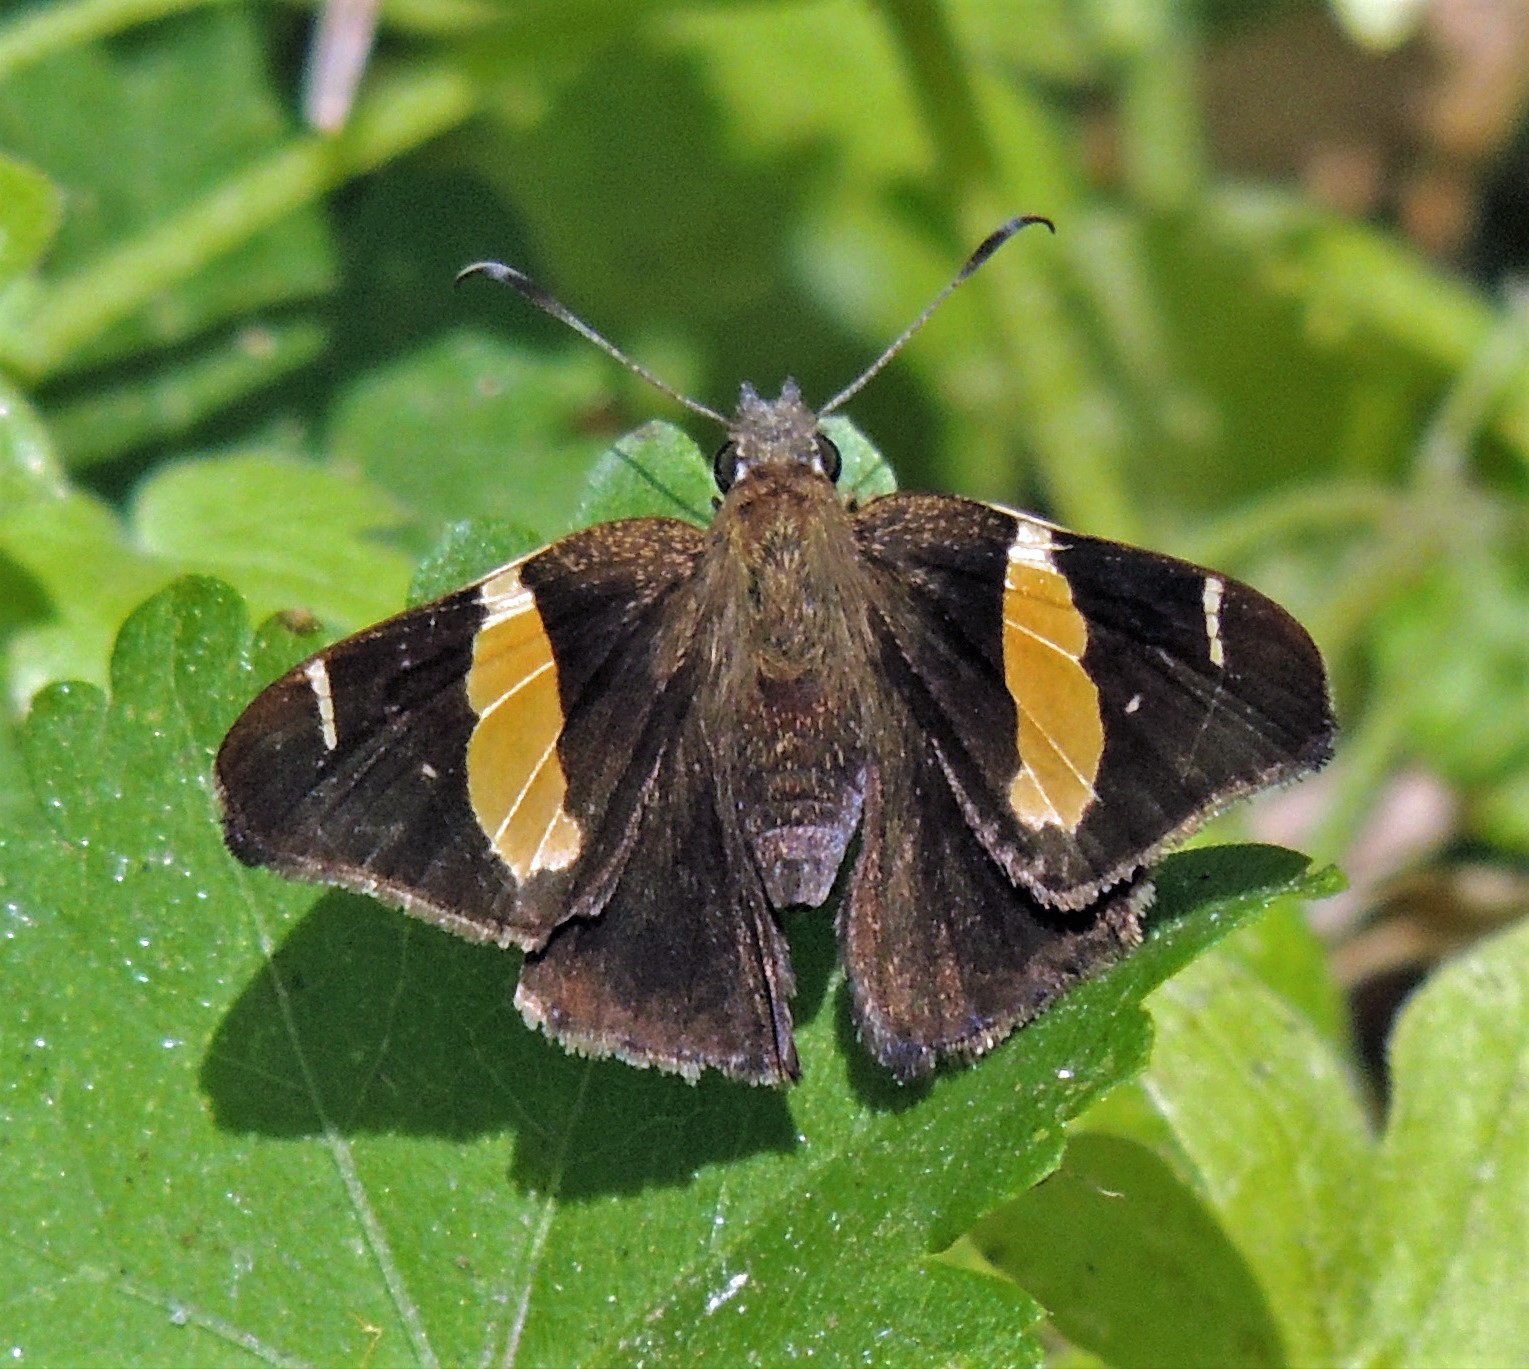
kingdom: Animalia
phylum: Arthropoda
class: Insecta
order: Lepidoptera
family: Hesperiidae
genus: Oechydrus
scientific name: Oechydrus chersis
